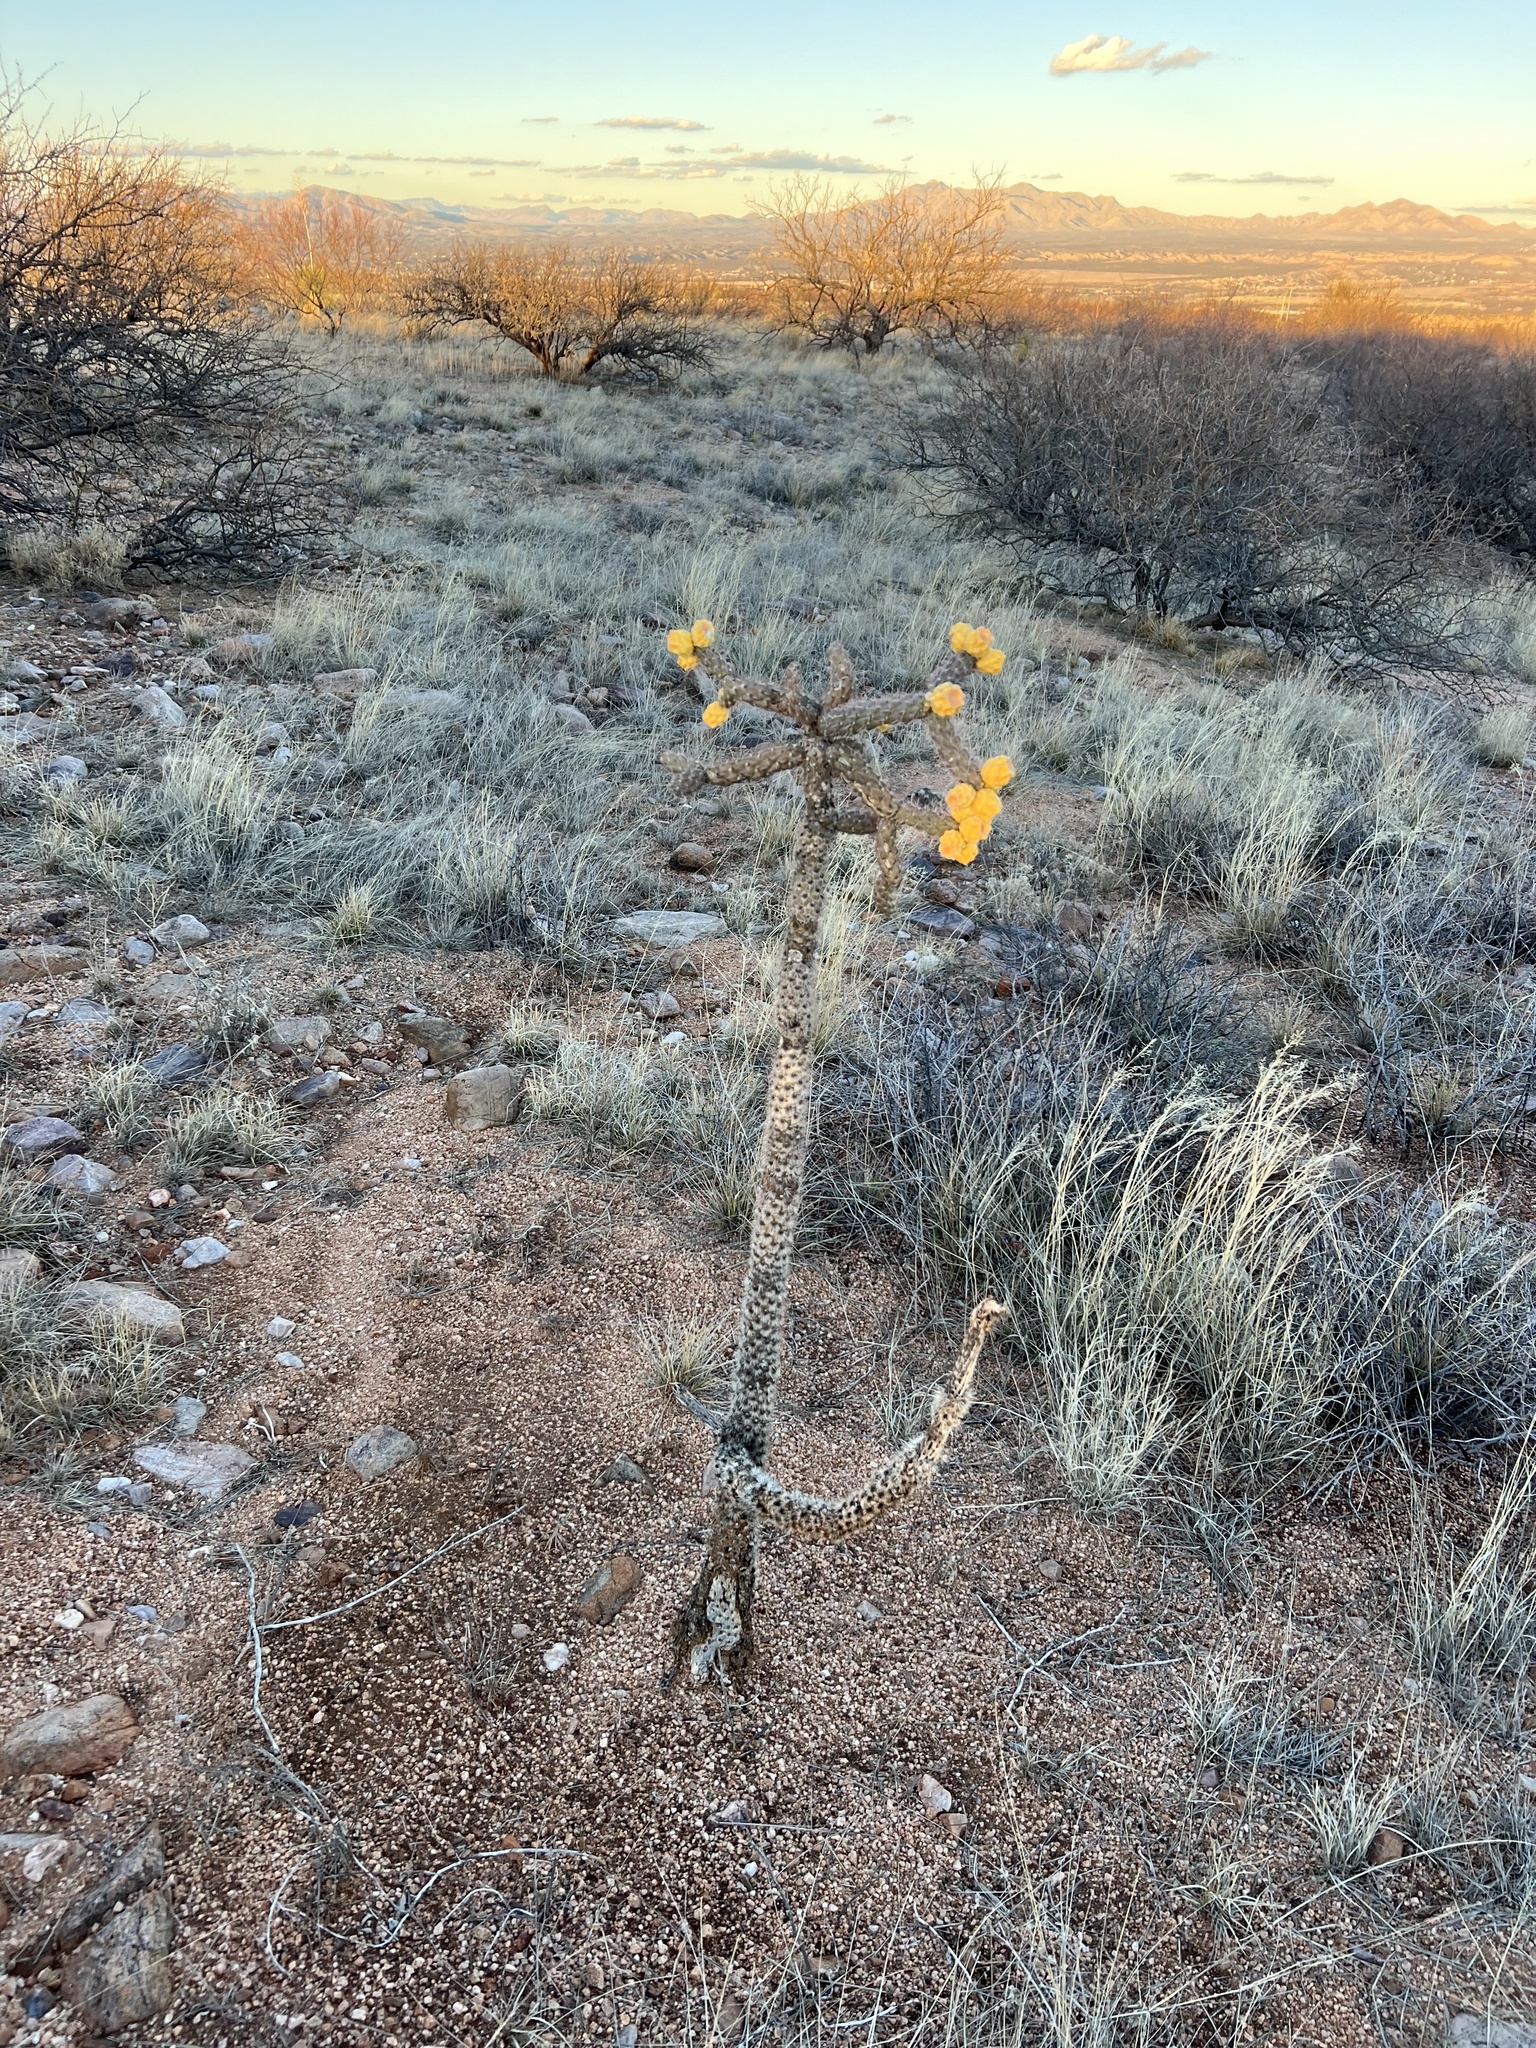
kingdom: Plantae
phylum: Tracheophyta
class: Magnoliopsida
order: Caryophyllales
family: Cactaceae
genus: Cylindropuntia
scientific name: Cylindropuntia imbricata
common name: Candelabrum cactus
